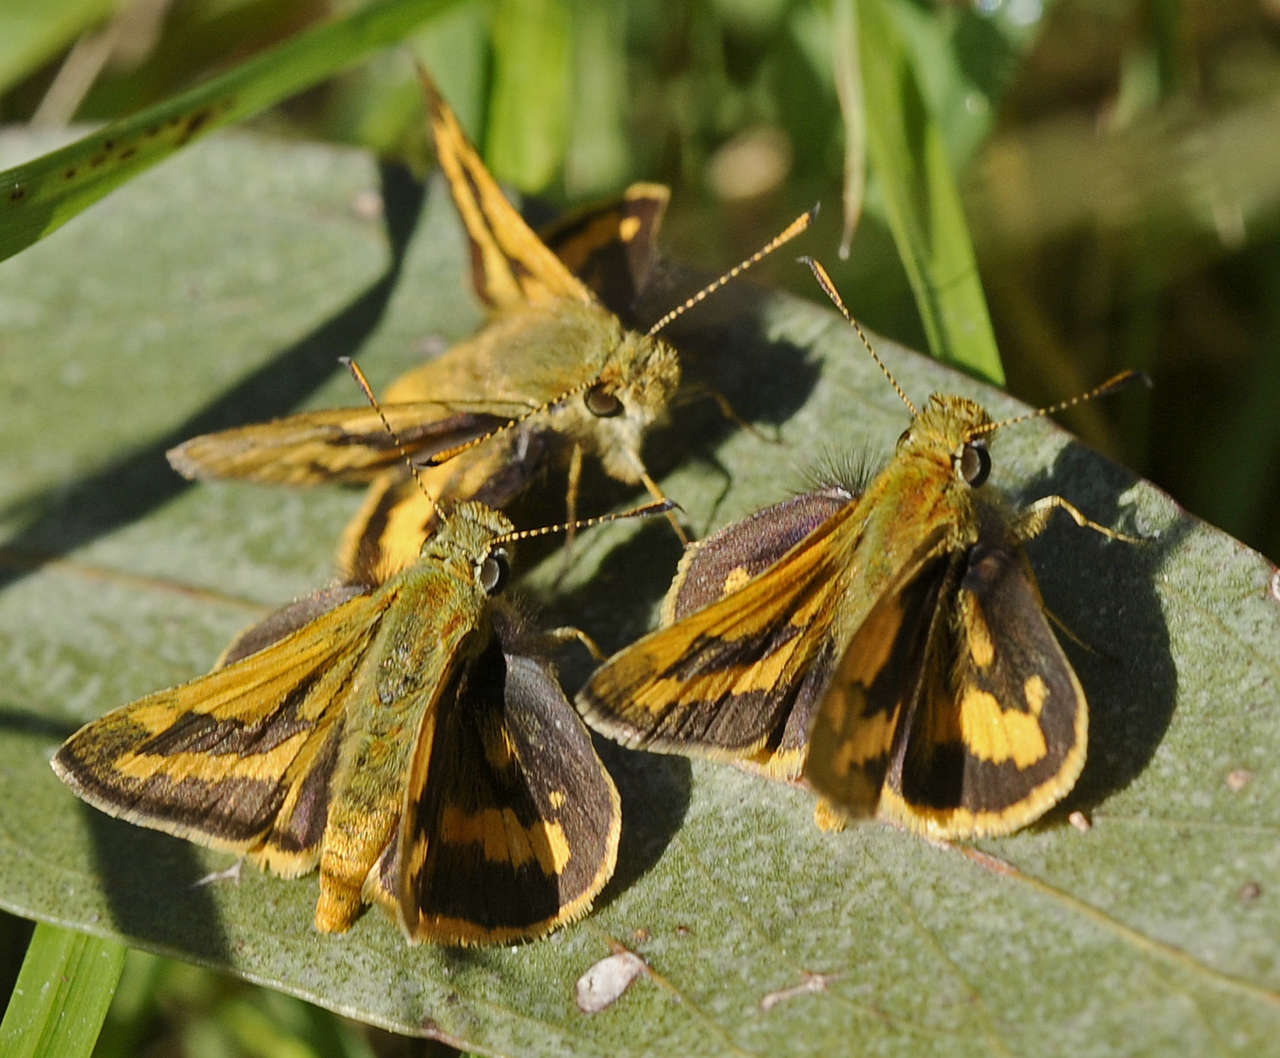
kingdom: Animalia
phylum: Arthropoda
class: Insecta
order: Lepidoptera
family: Hesperiidae
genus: Ocybadistes
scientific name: Ocybadistes walkeri
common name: Yellow-banded dart
